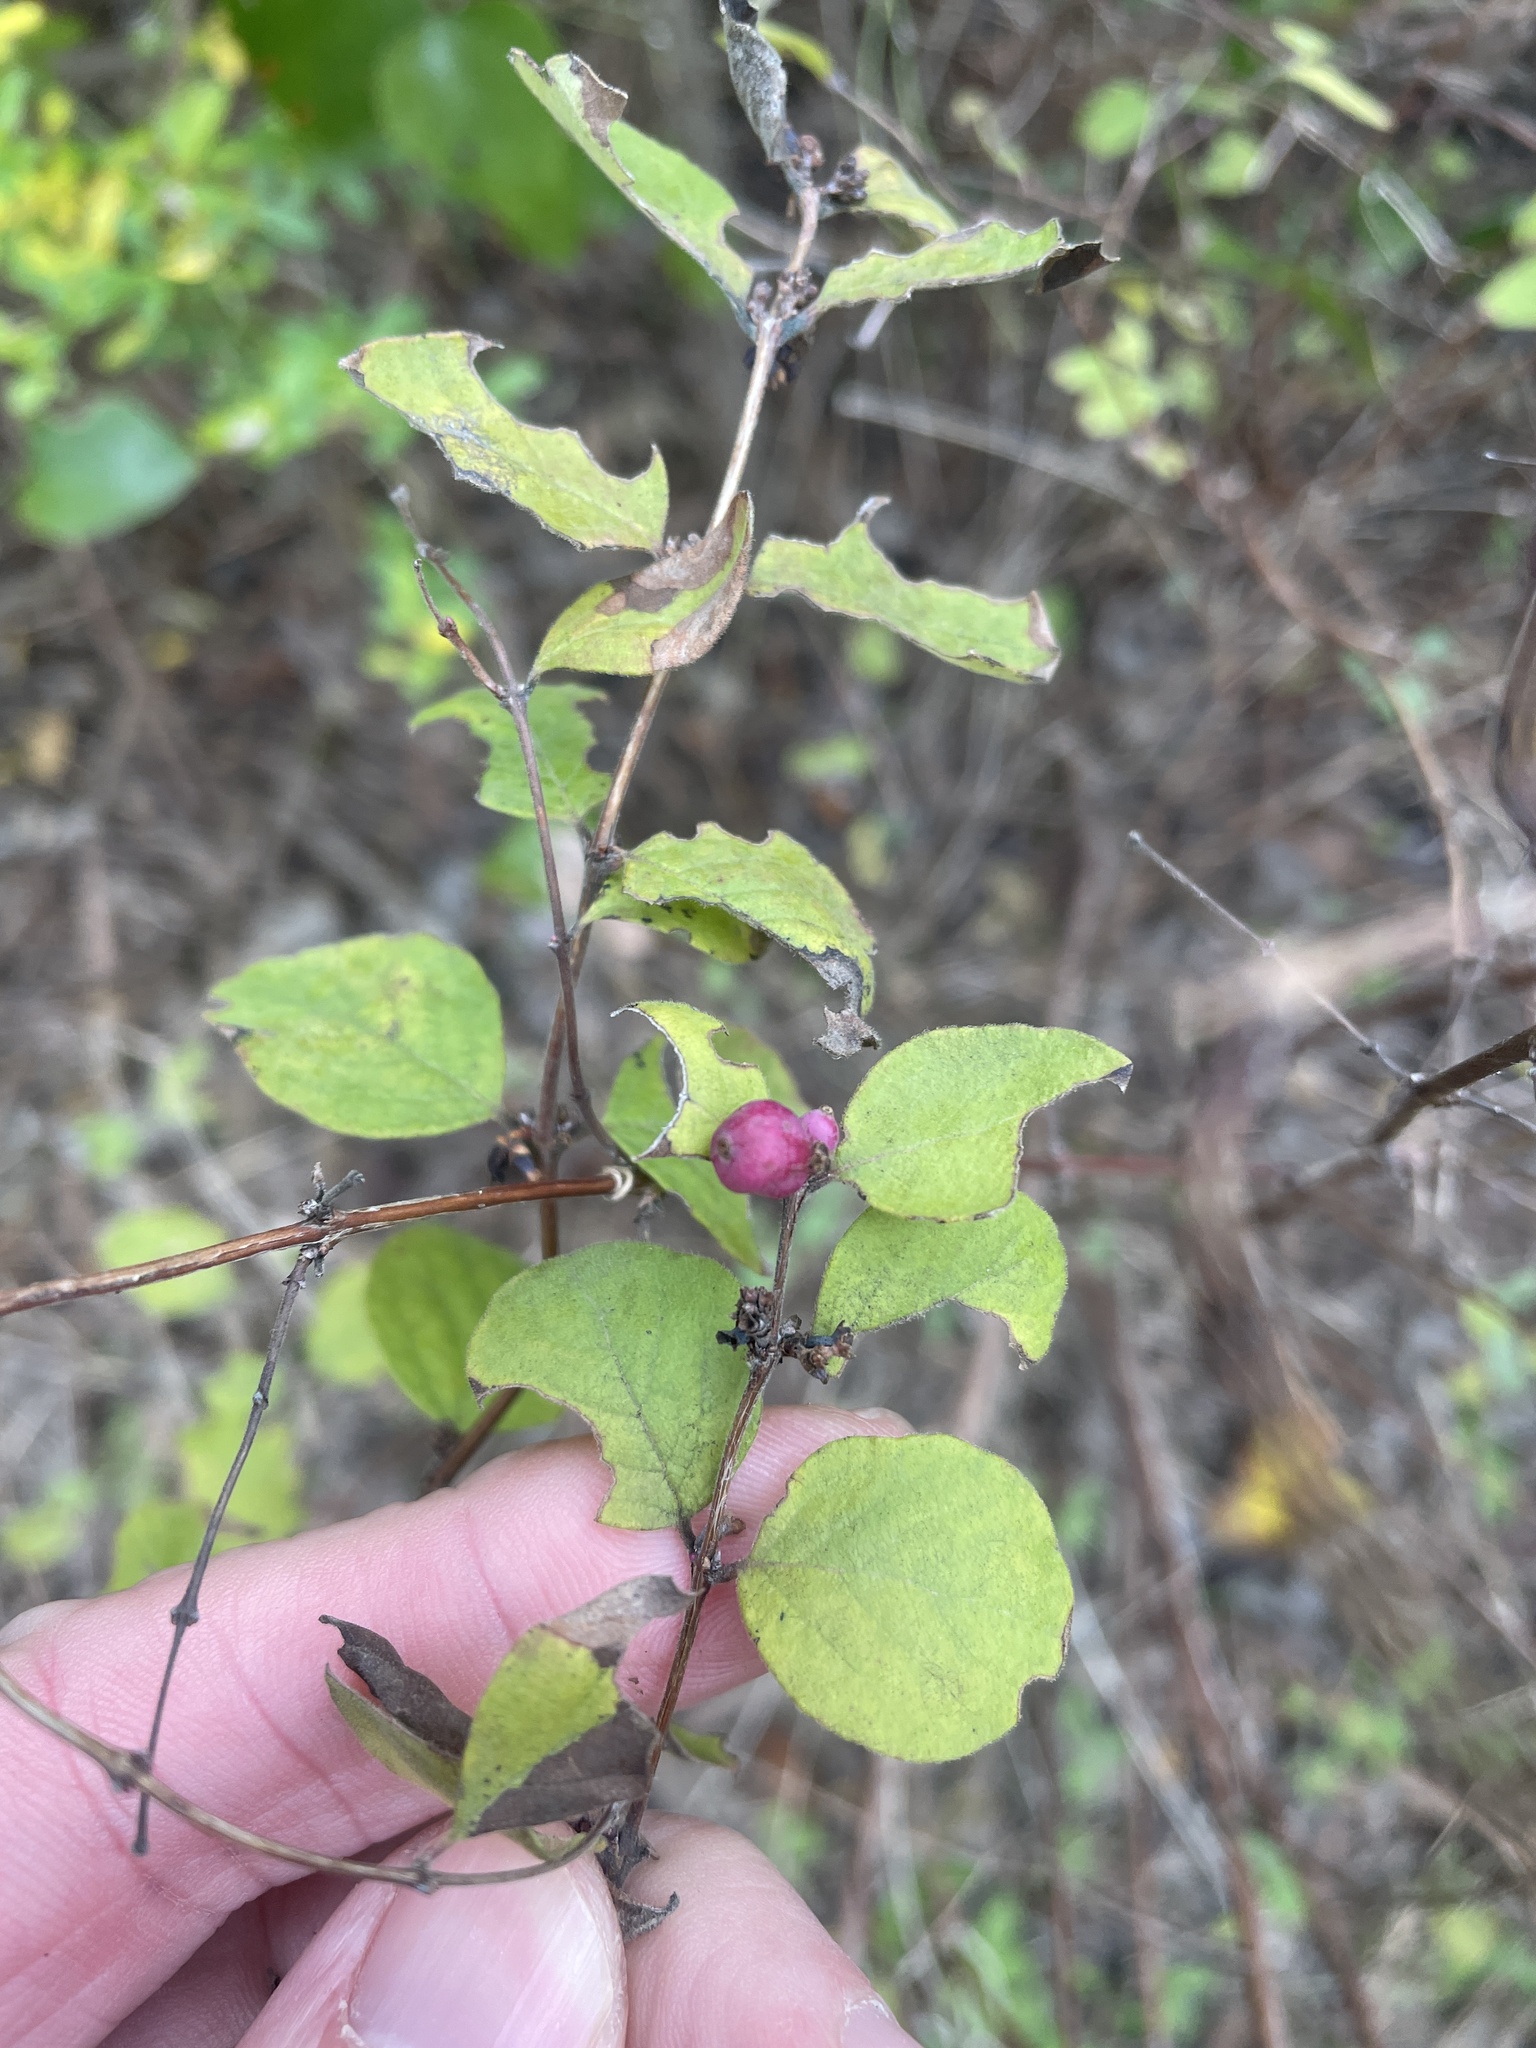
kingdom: Plantae
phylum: Tracheophyta
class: Magnoliopsida
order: Dipsacales
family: Caprifoliaceae
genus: Symphoricarpos
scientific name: Symphoricarpos orbiculatus
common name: Coralberry
